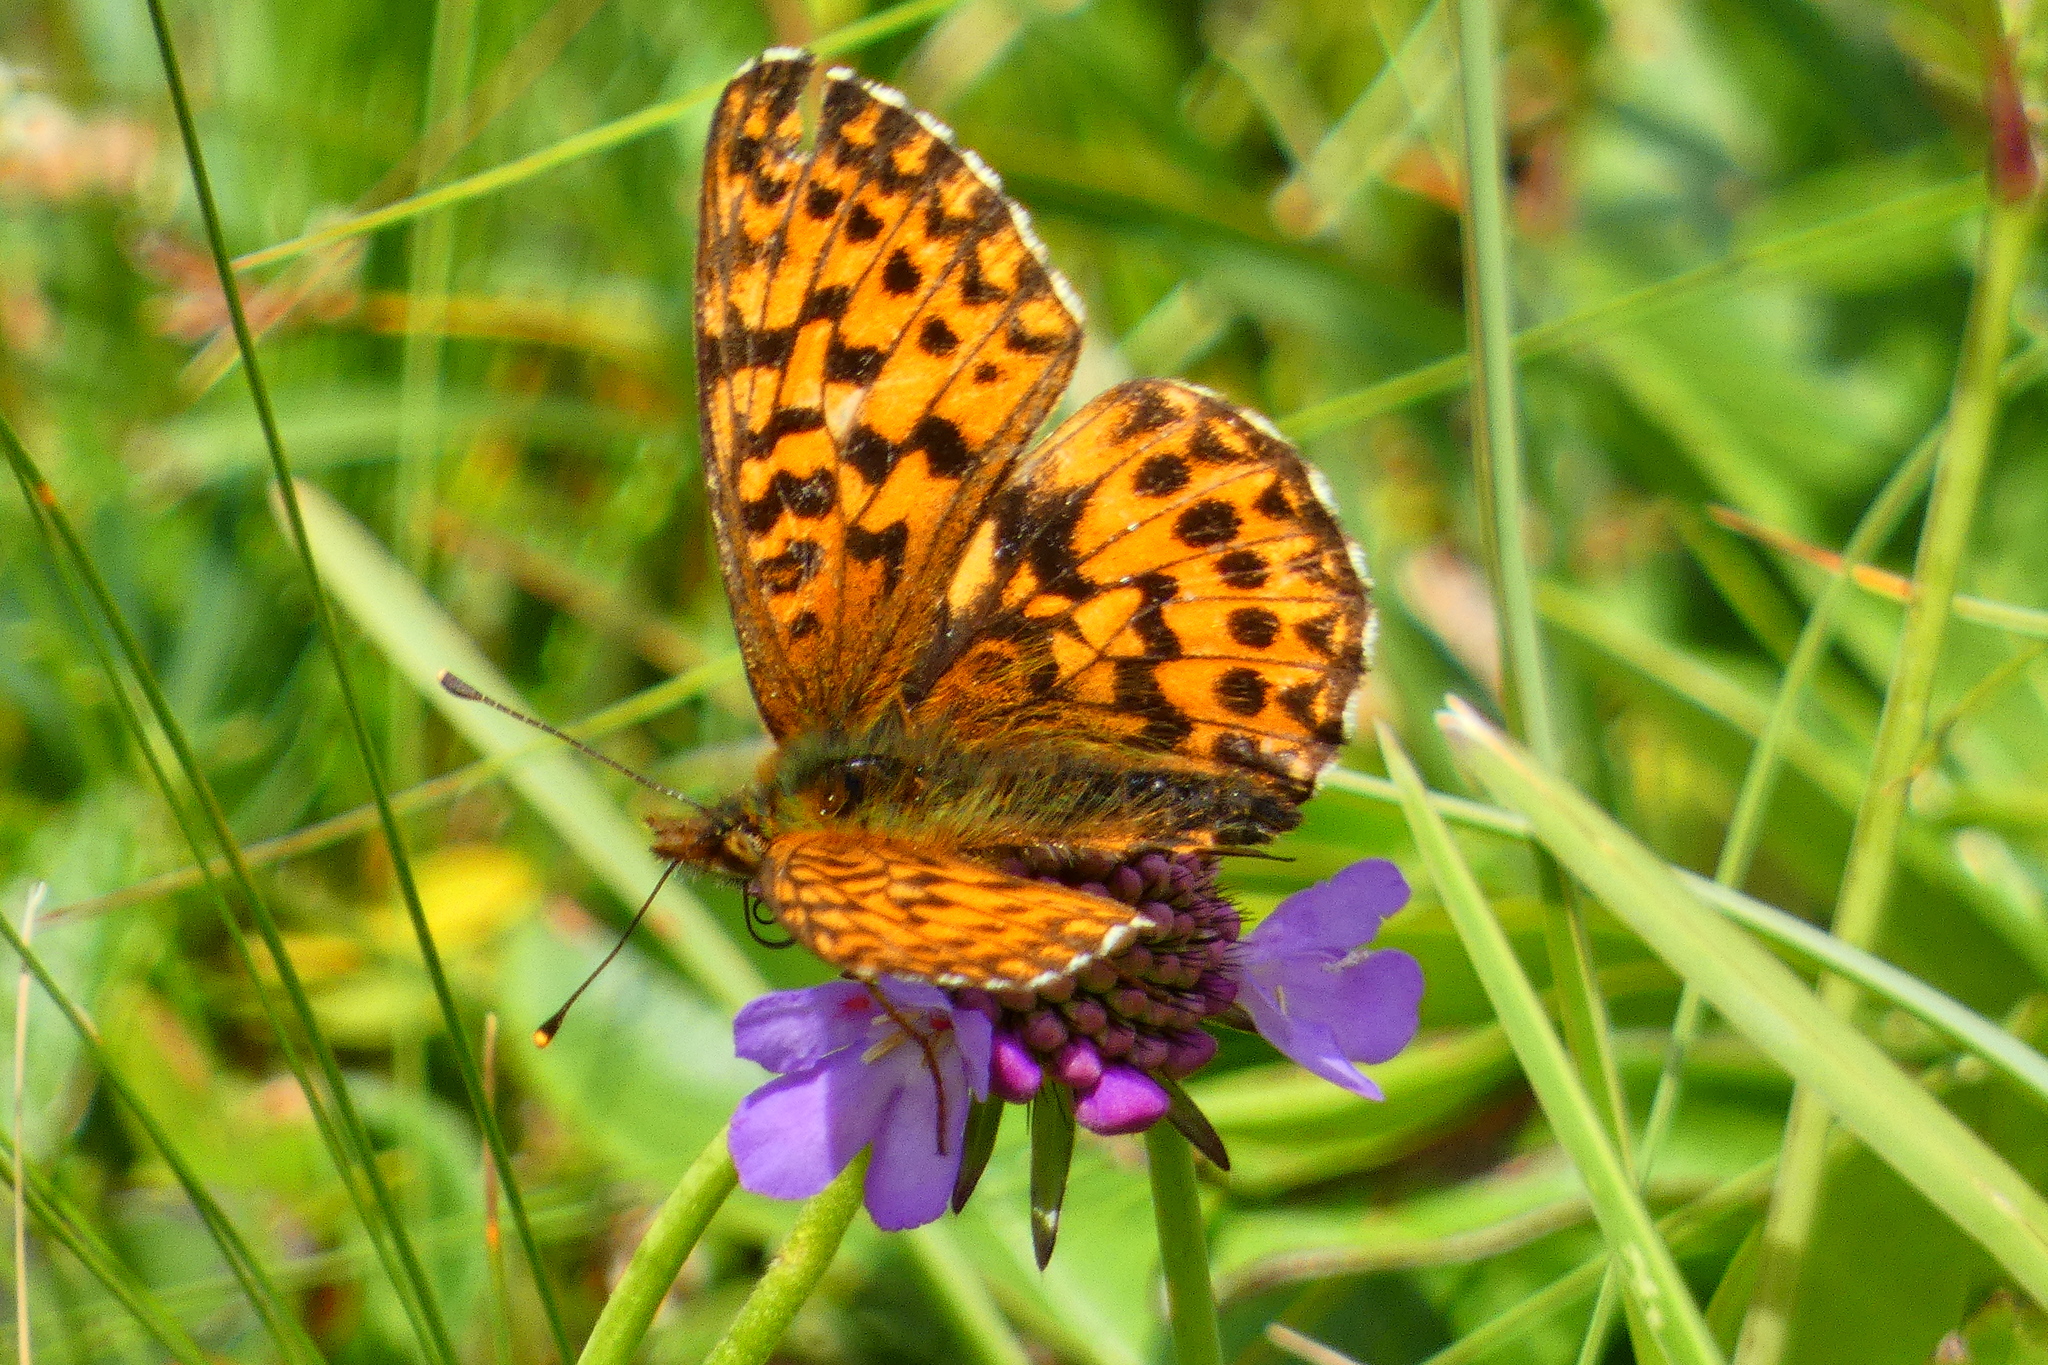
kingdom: Animalia
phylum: Arthropoda
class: Insecta
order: Lepidoptera
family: Nymphalidae
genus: Boloria
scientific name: Boloria titania
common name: Titania's fritillary
